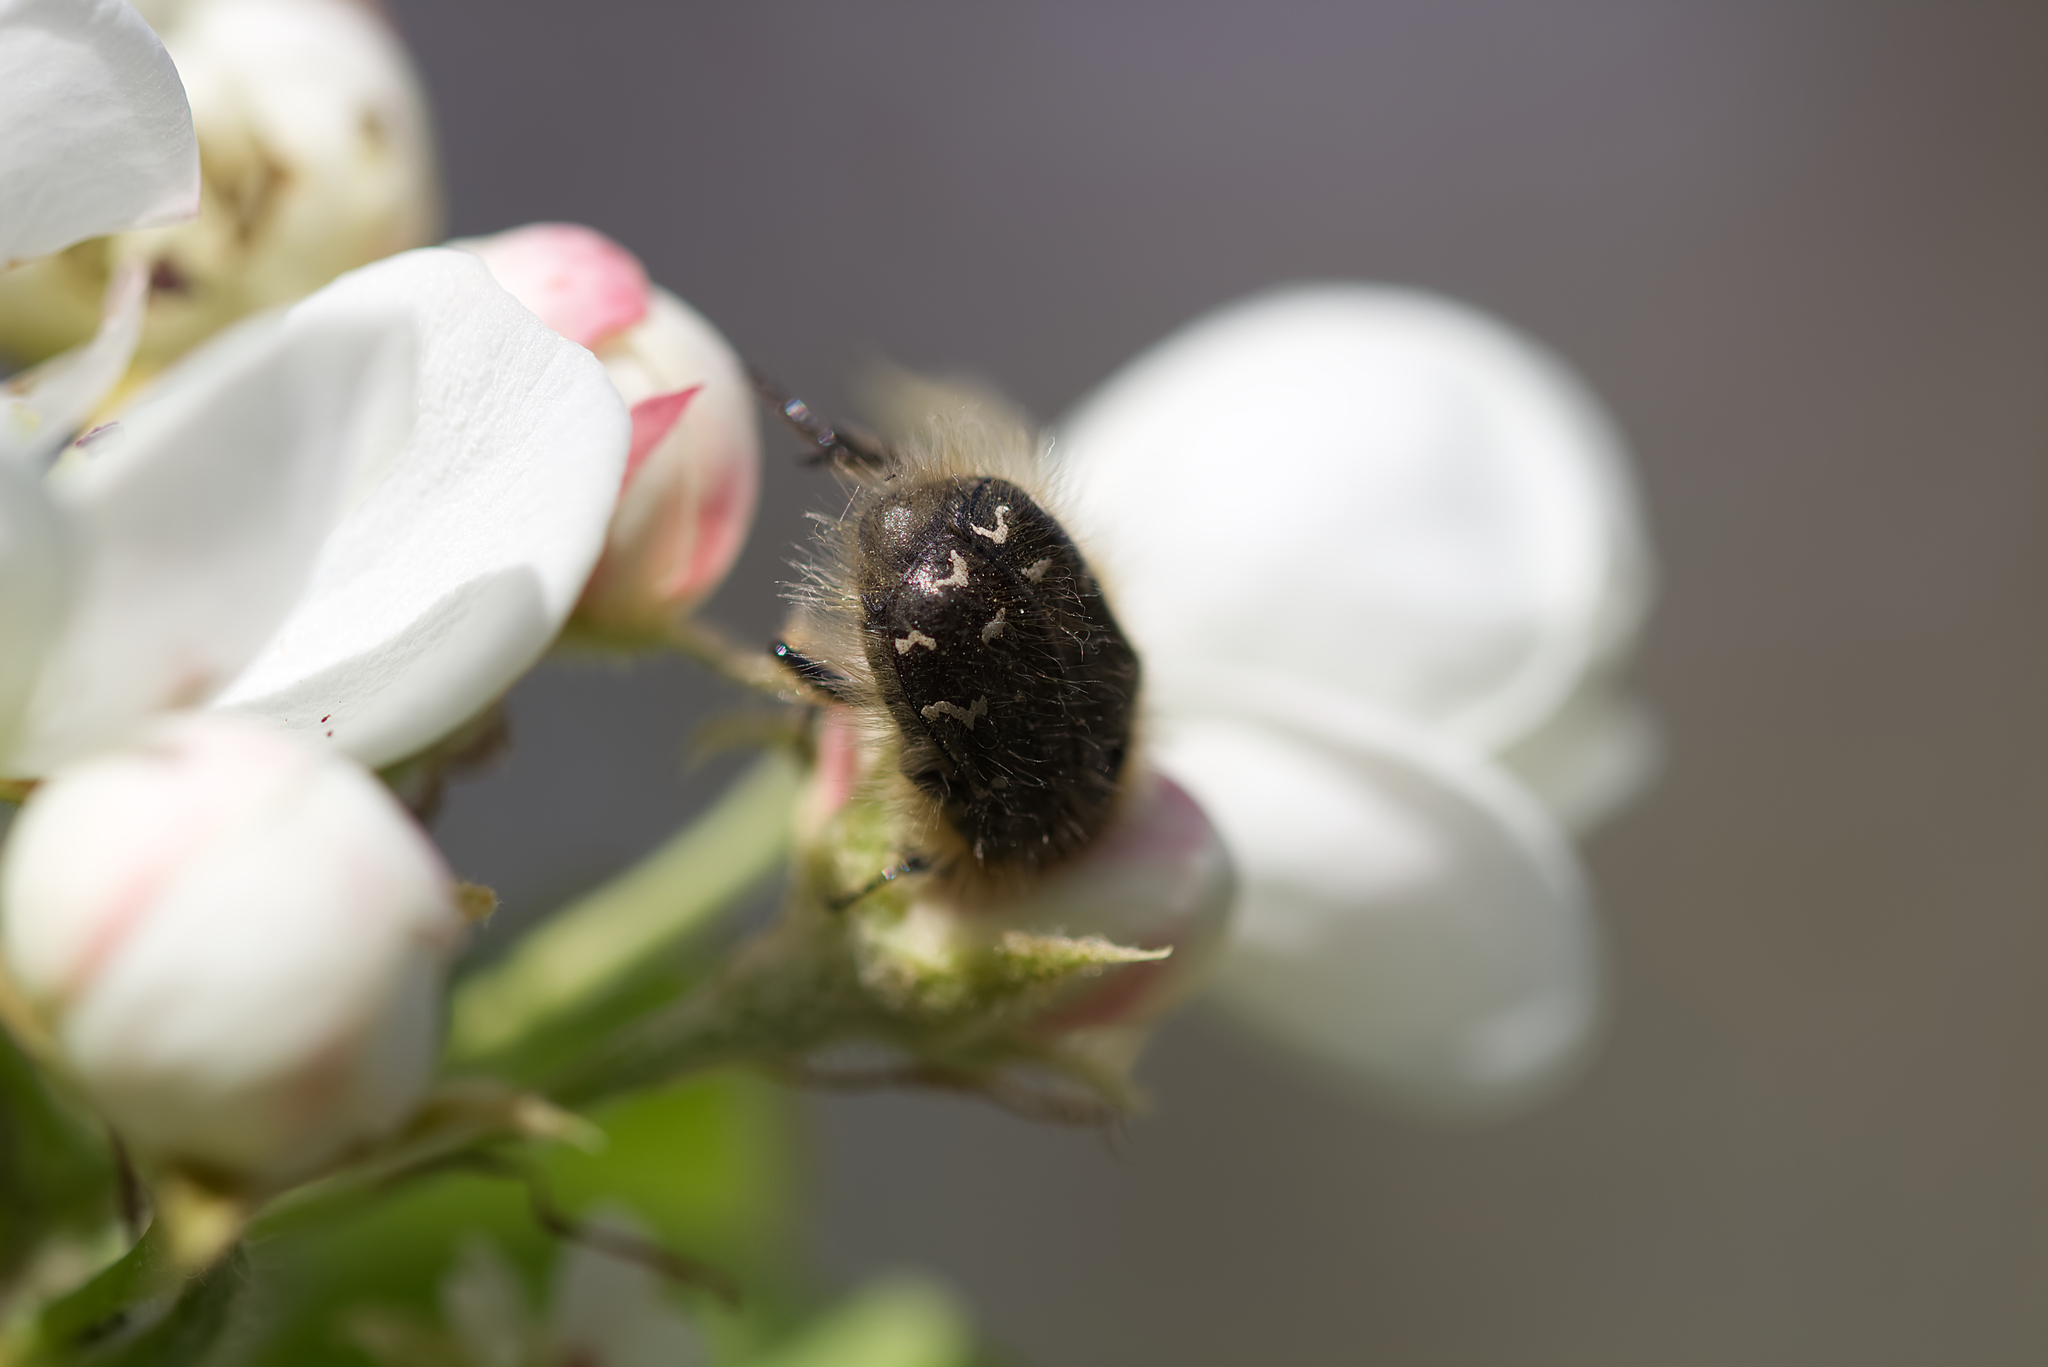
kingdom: Animalia
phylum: Arthropoda
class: Insecta
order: Coleoptera
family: Scarabaeidae
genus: Tropinota
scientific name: Tropinota hirta
